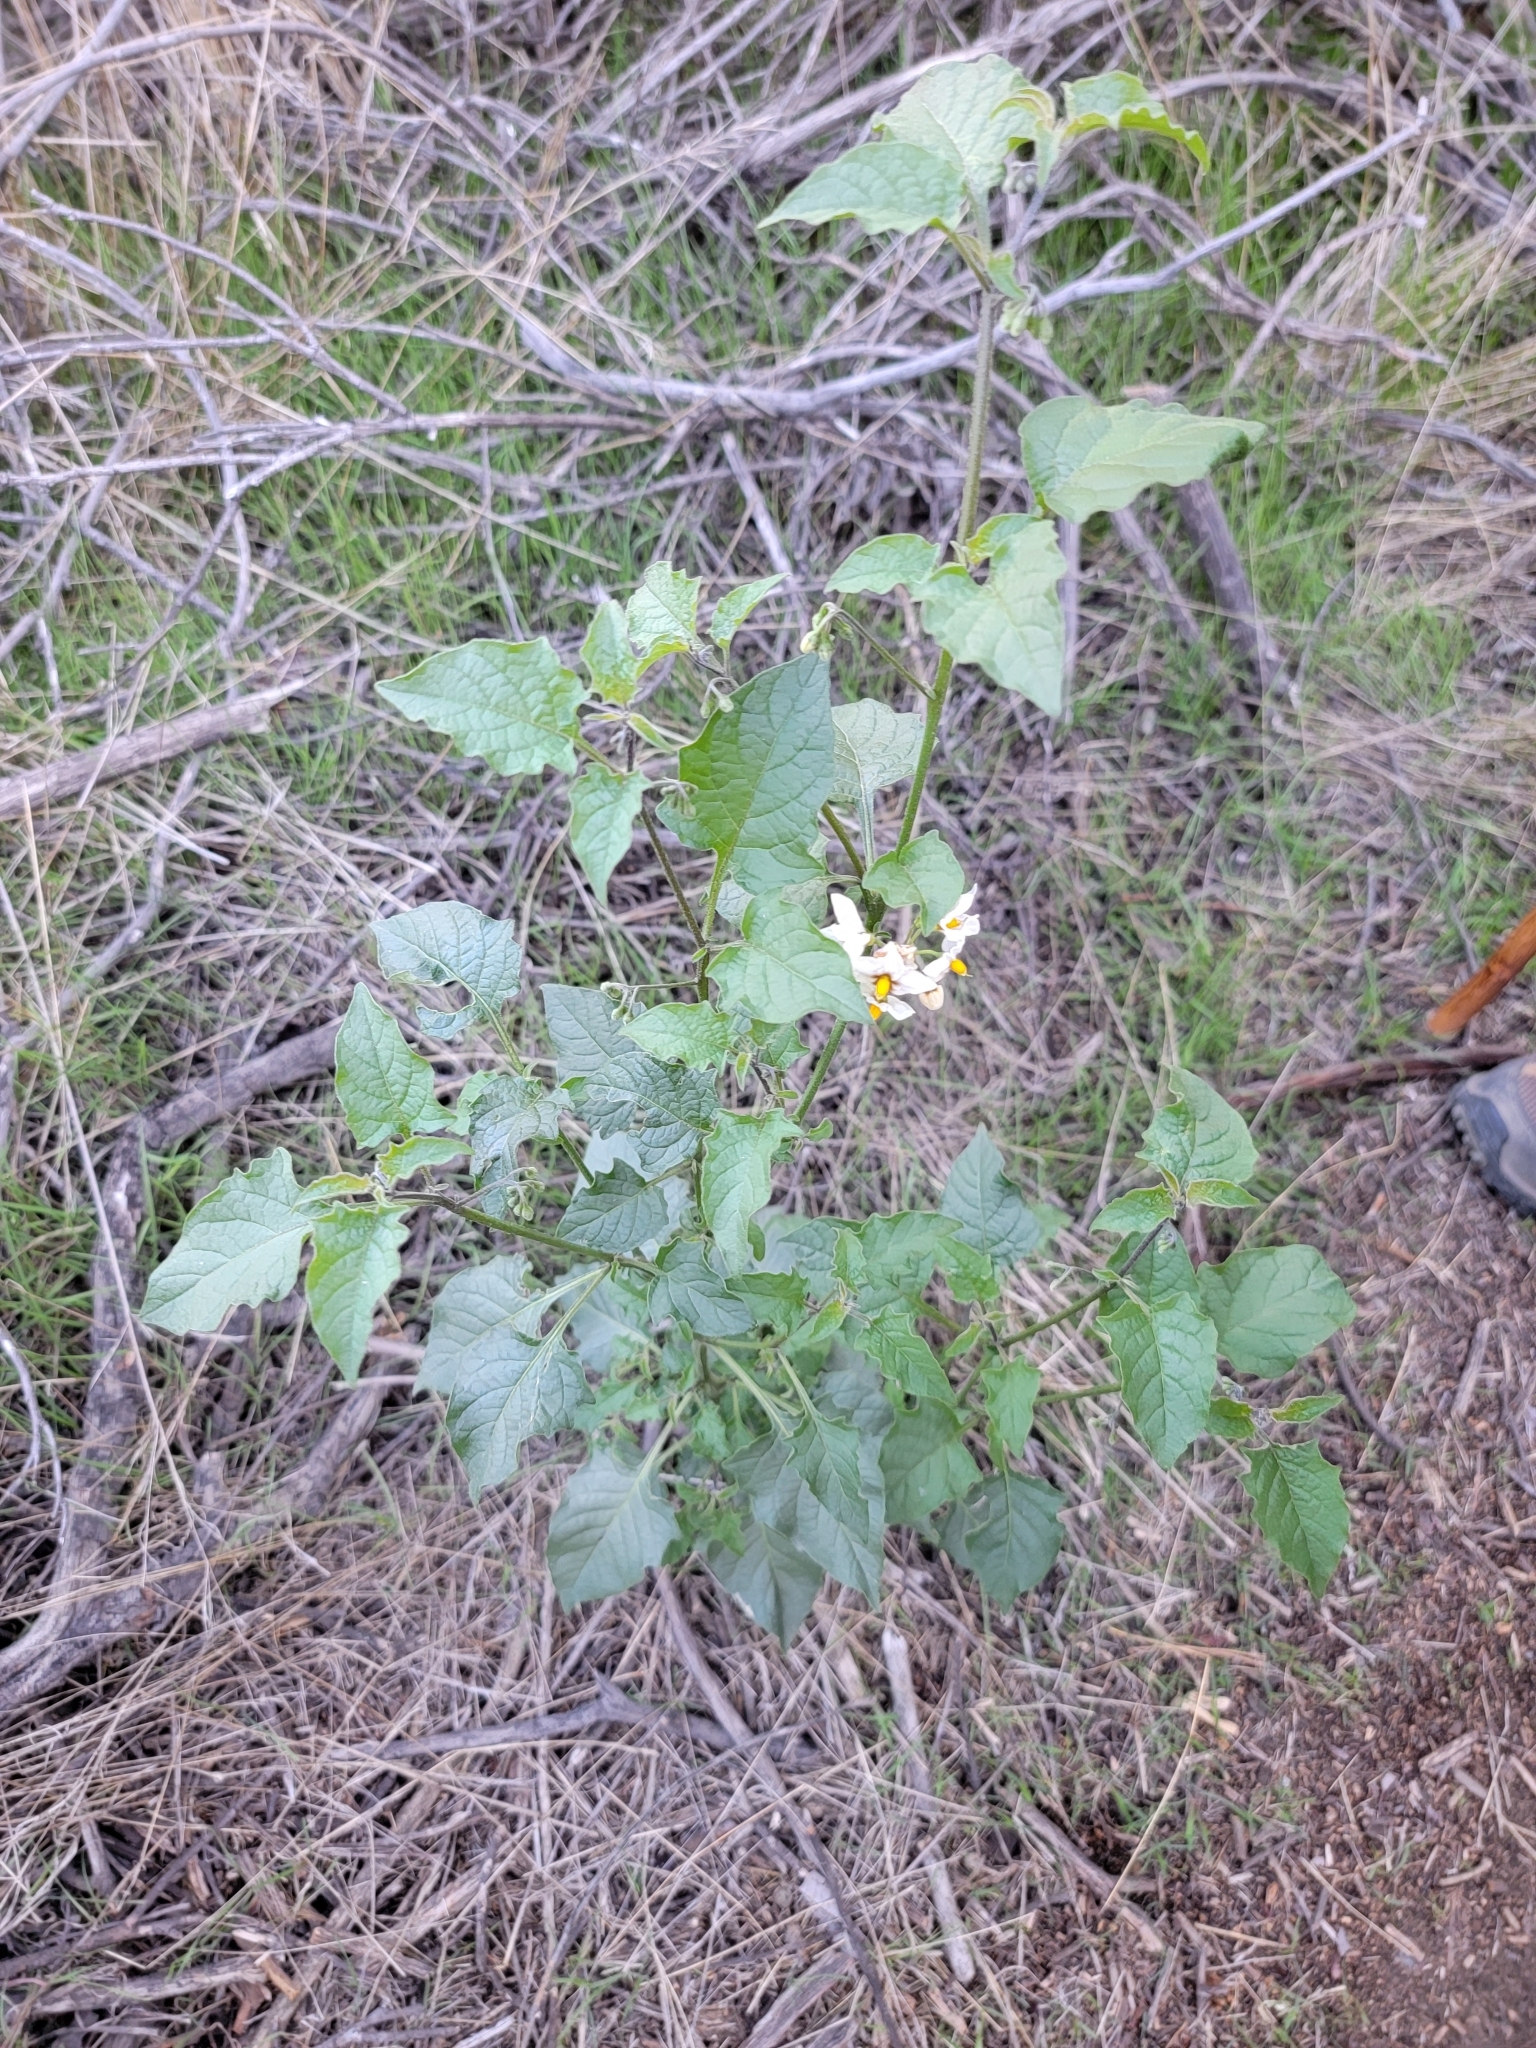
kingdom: Plantae
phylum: Tracheophyta
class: Magnoliopsida
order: Solanales
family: Solanaceae
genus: Solanum
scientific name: Solanum douglasii
